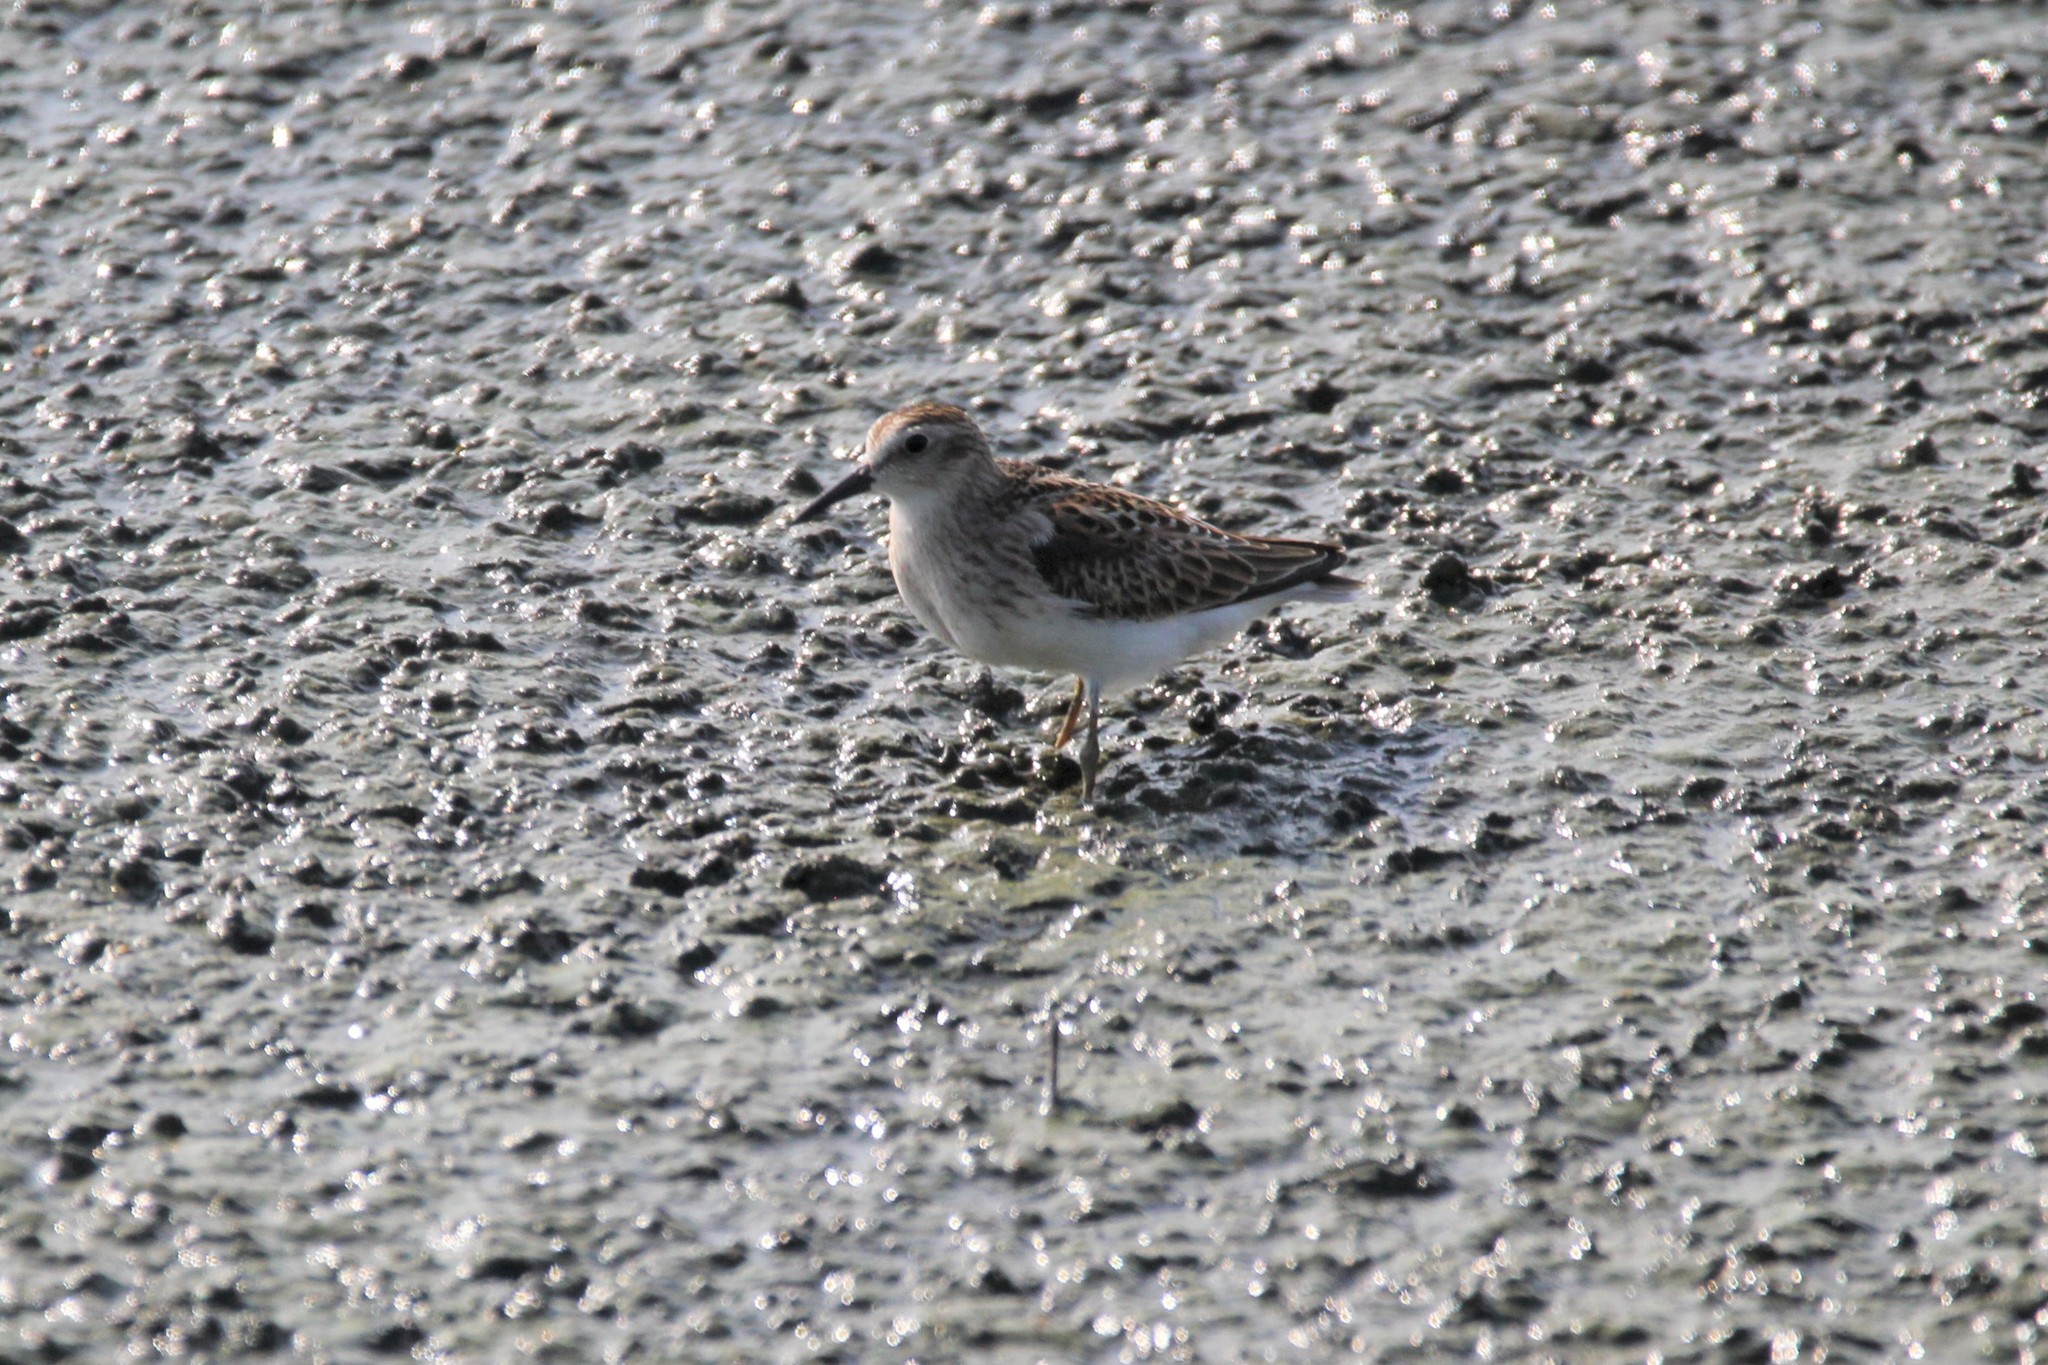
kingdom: Animalia
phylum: Chordata
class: Aves
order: Charadriiformes
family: Scolopacidae
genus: Calidris
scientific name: Calidris minutilla
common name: Least sandpiper
